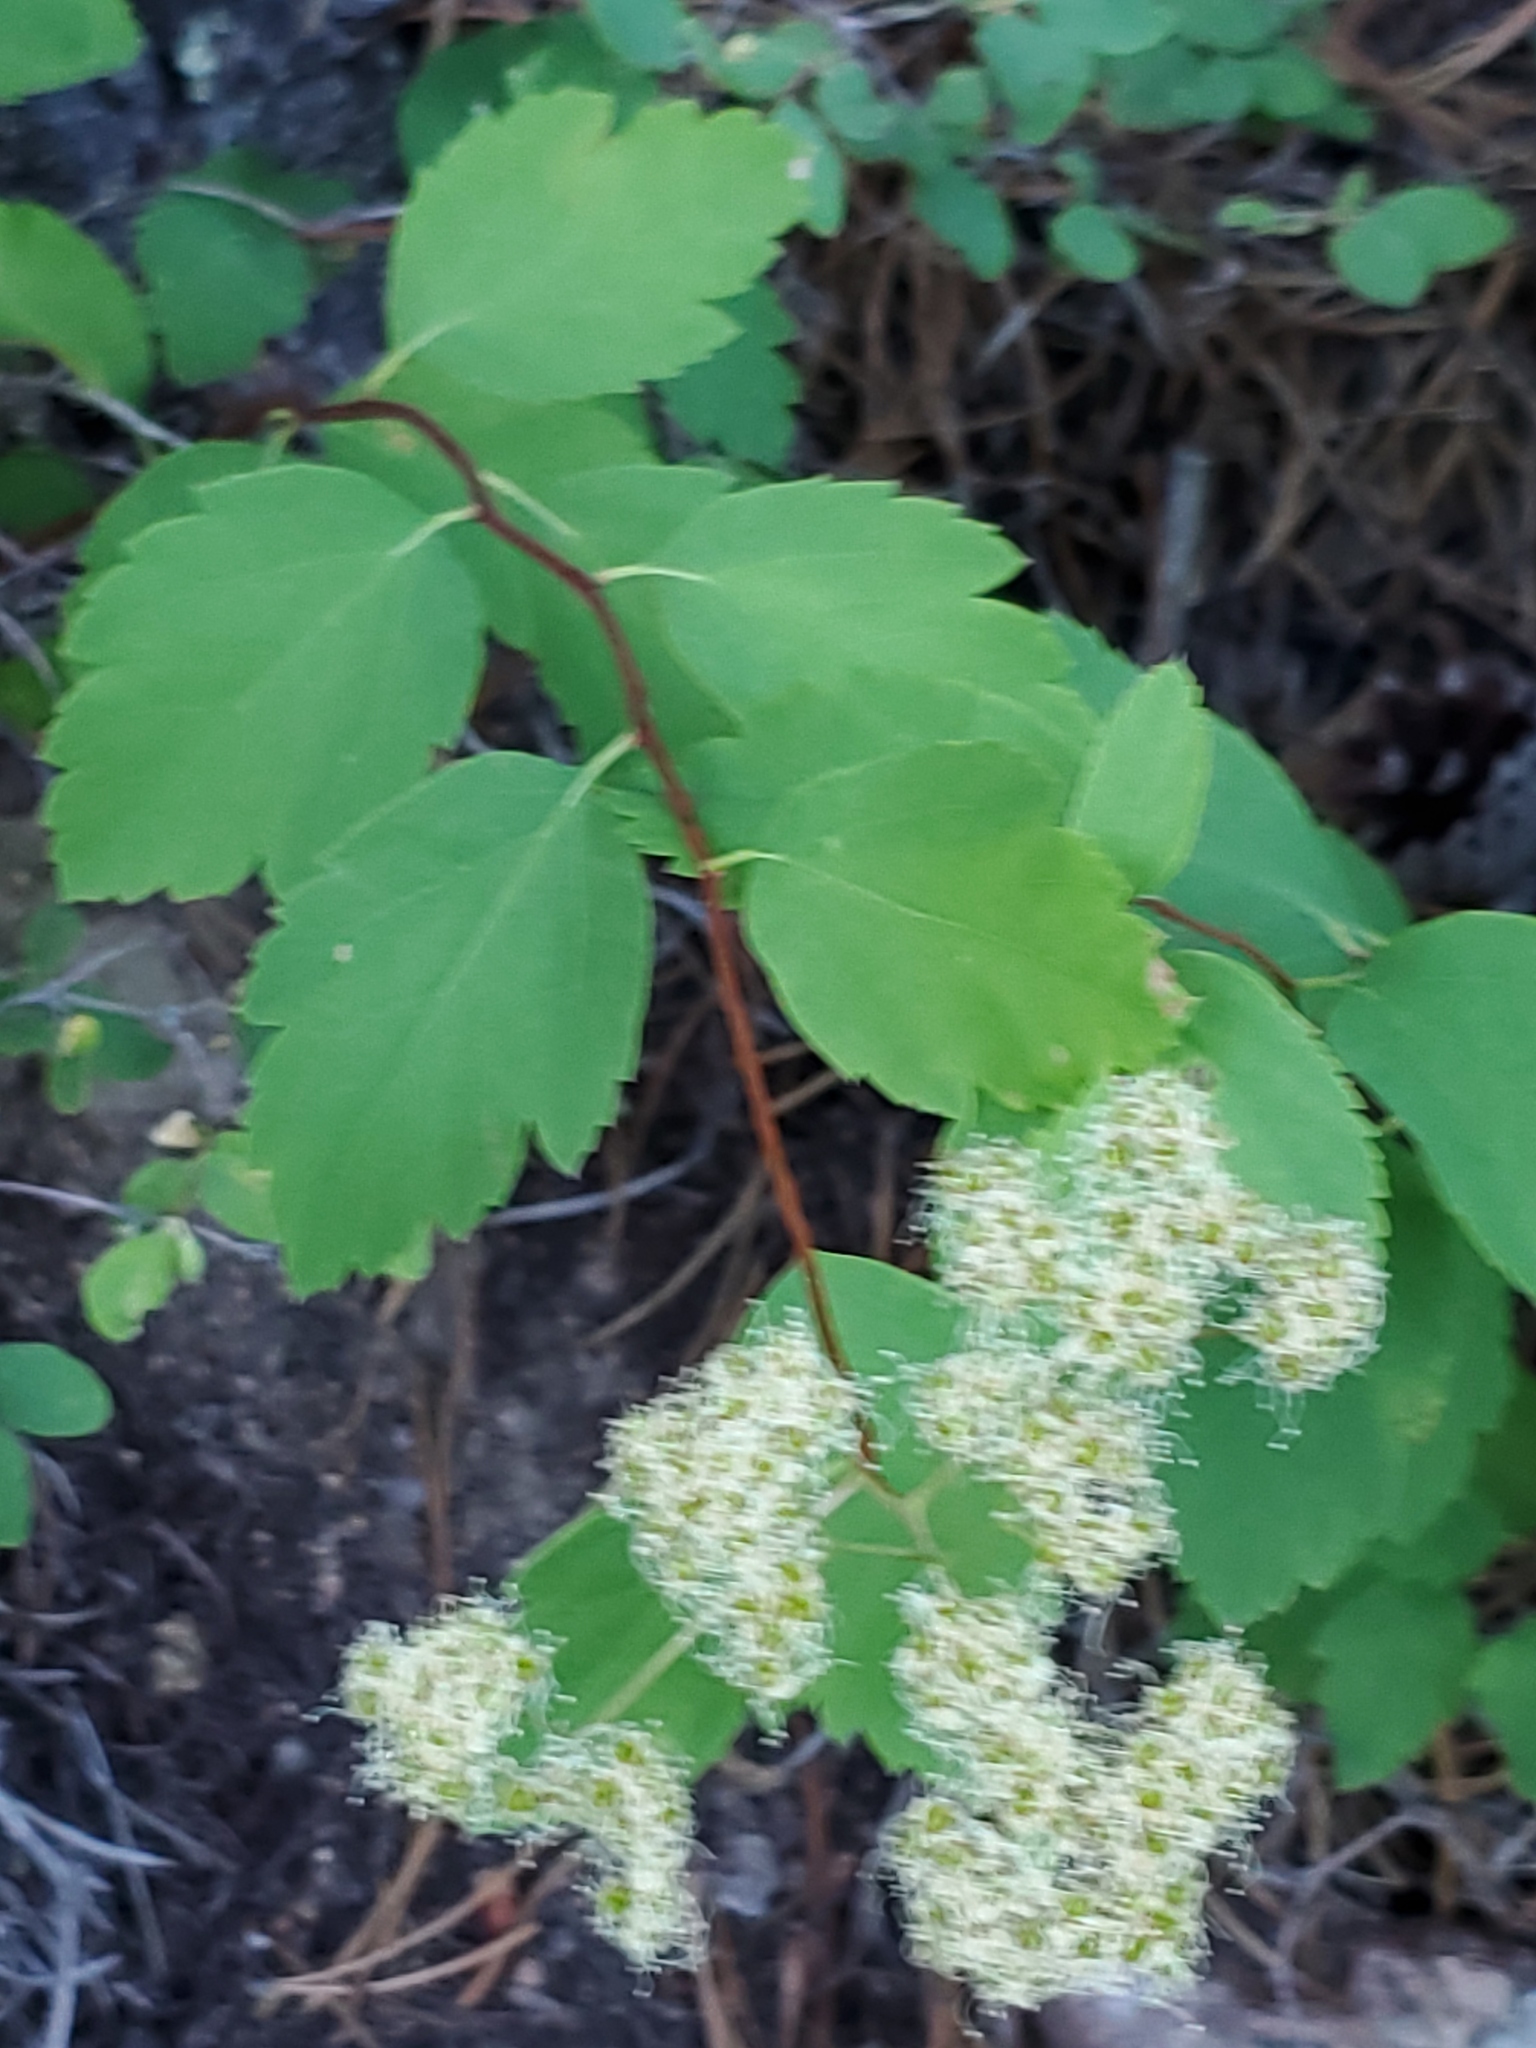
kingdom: Plantae
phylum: Tracheophyta
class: Magnoliopsida
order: Rosales
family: Rosaceae
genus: Spiraea
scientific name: Spiraea lucida
